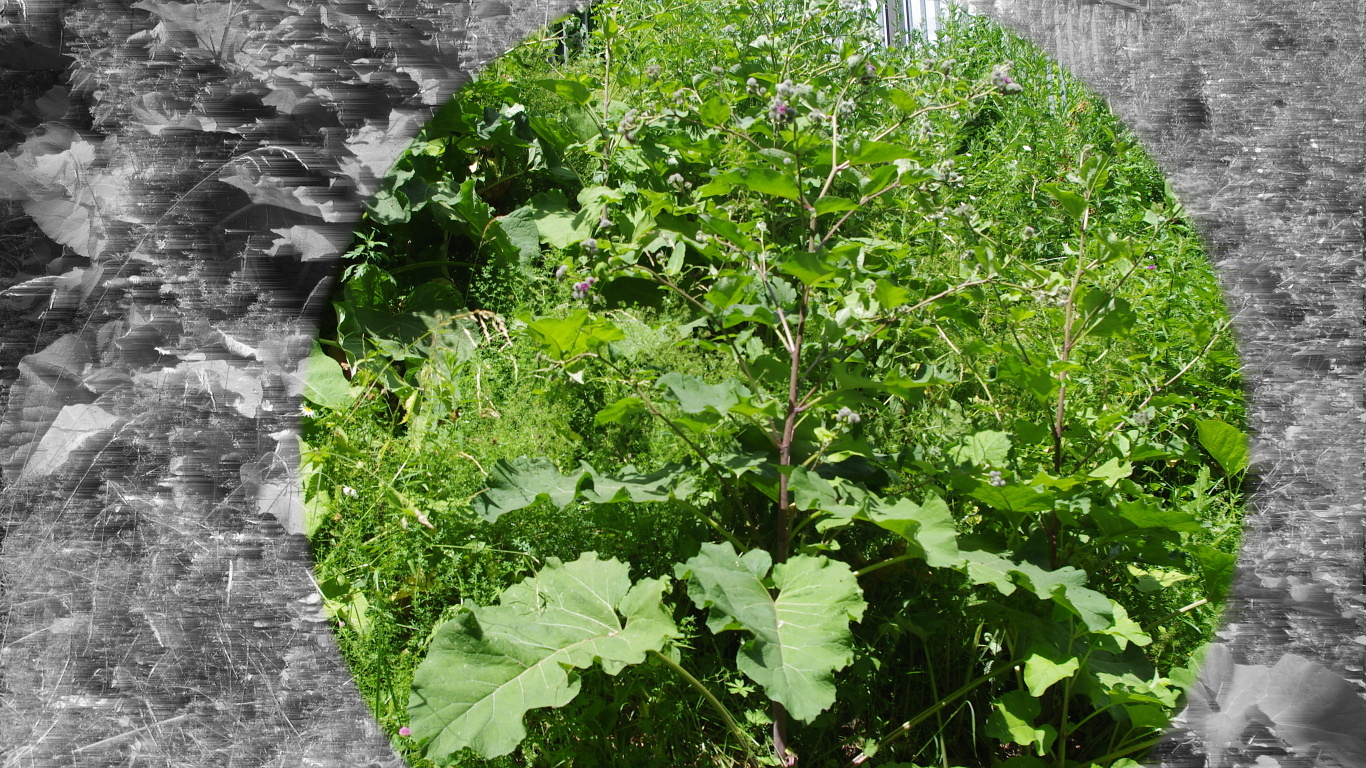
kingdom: Plantae
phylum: Tracheophyta
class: Magnoliopsida
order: Asterales
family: Asteraceae
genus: Arctium
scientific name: Arctium tomentosum
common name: Woolly burdock
